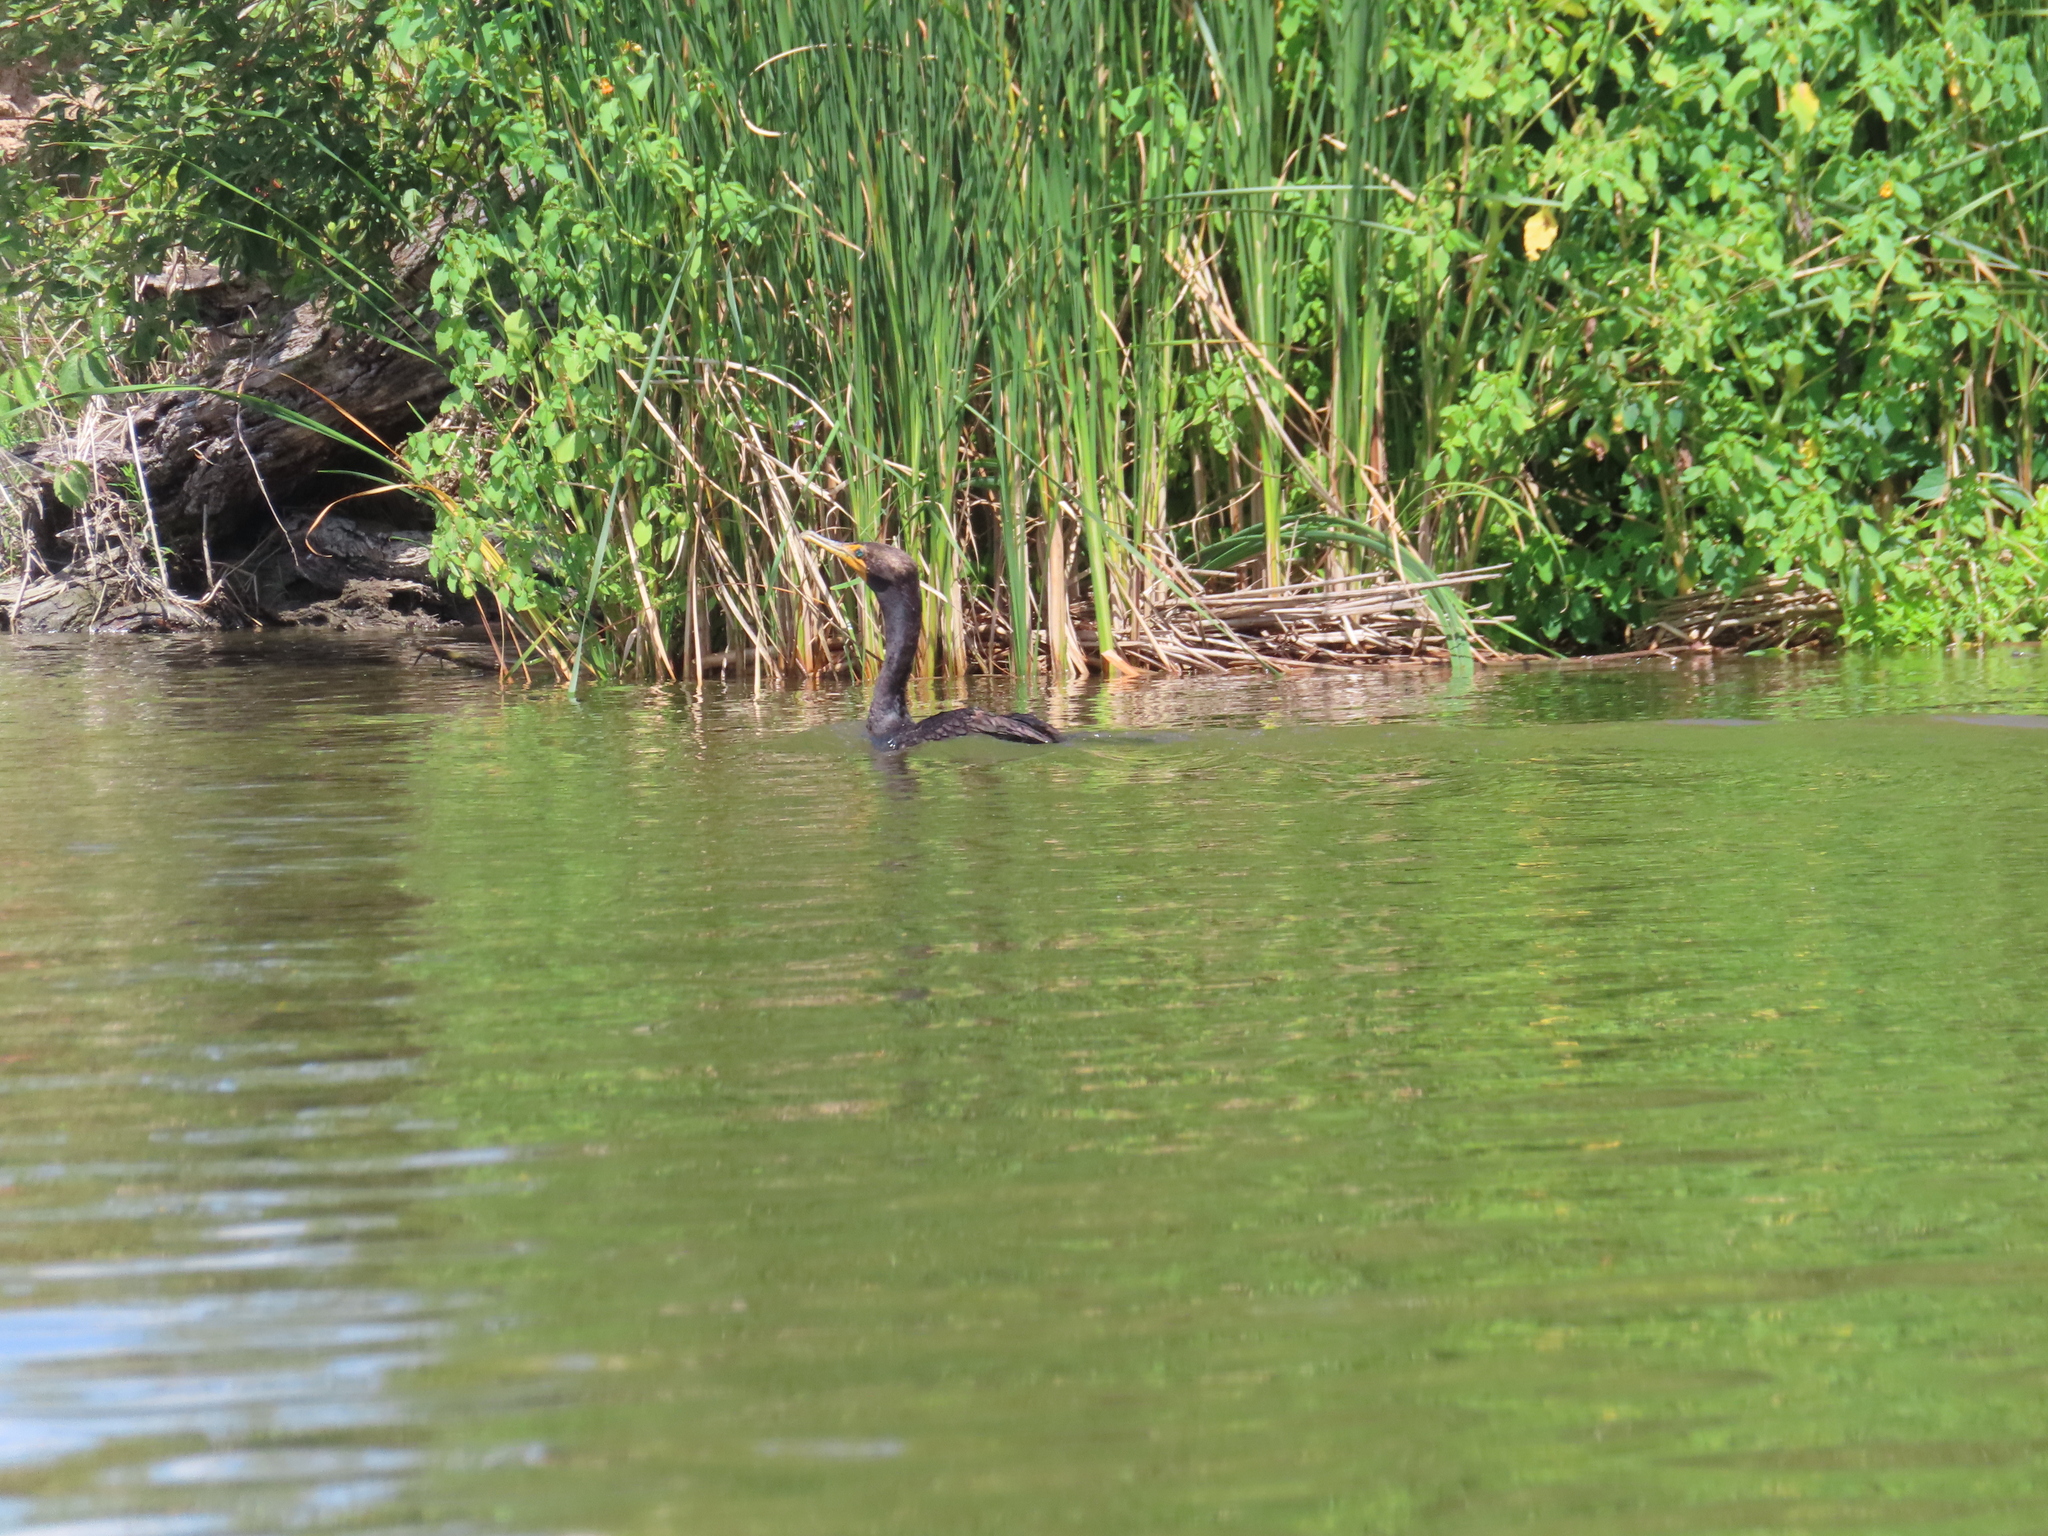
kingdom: Animalia
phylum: Chordata
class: Aves
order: Suliformes
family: Phalacrocoracidae
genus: Phalacrocorax
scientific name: Phalacrocorax auritus
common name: Double-crested cormorant
